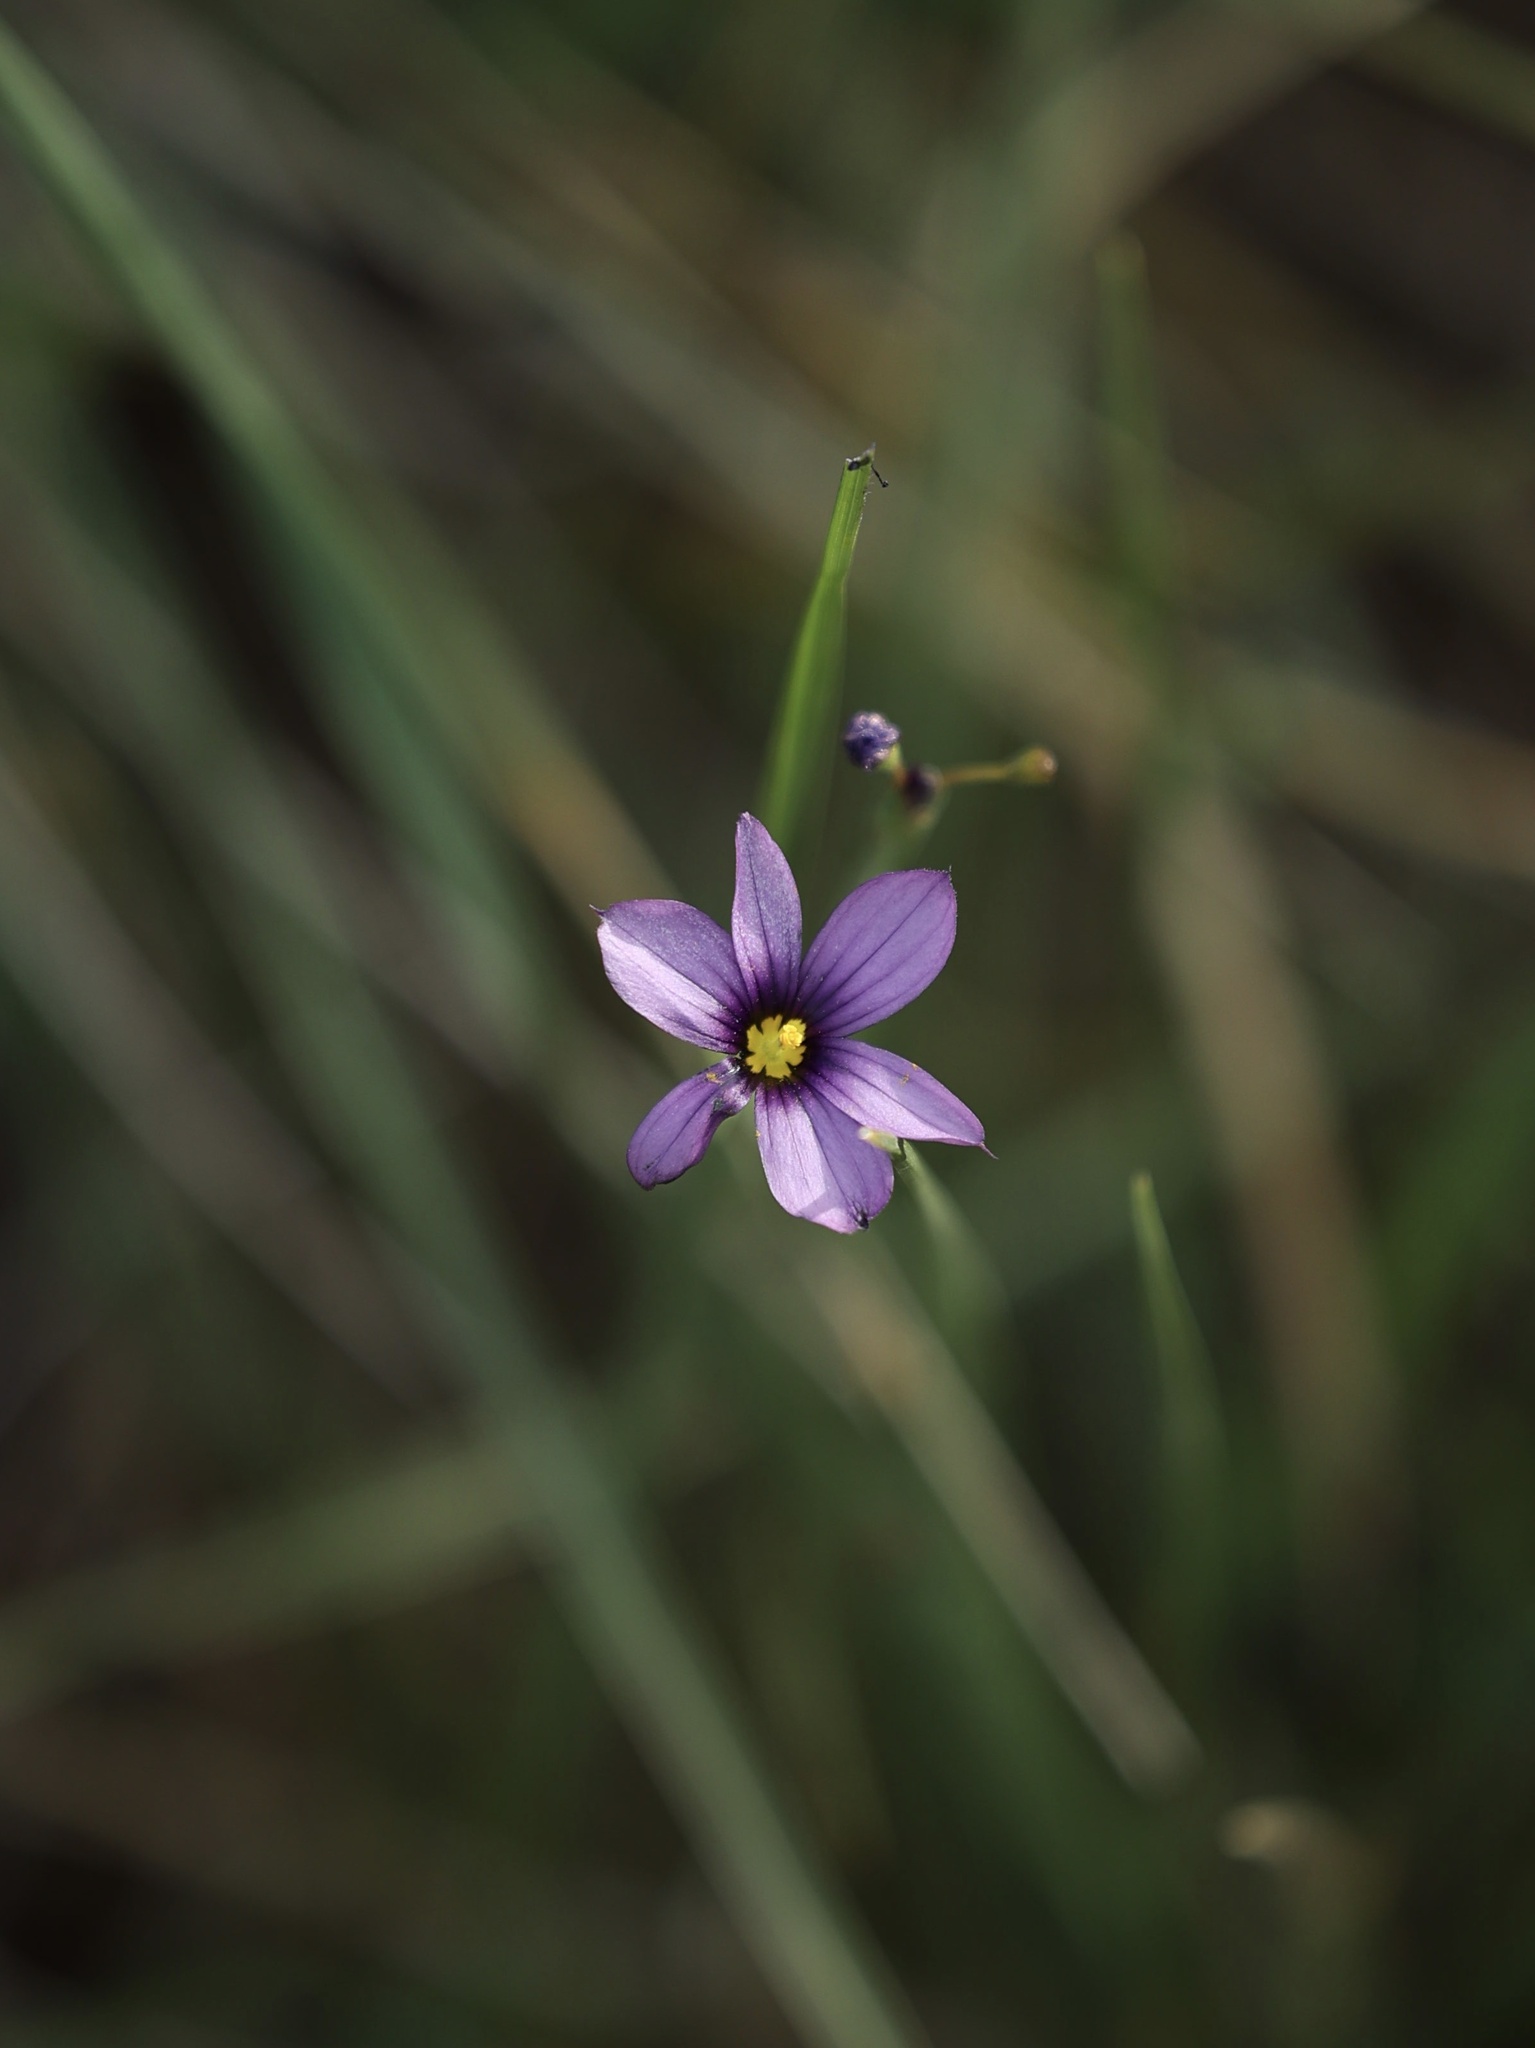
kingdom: Plantae
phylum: Tracheophyta
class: Liliopsida
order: Asparagales
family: Iridaceae
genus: Sisyrinchium
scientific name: Sisyrinchium bellum
